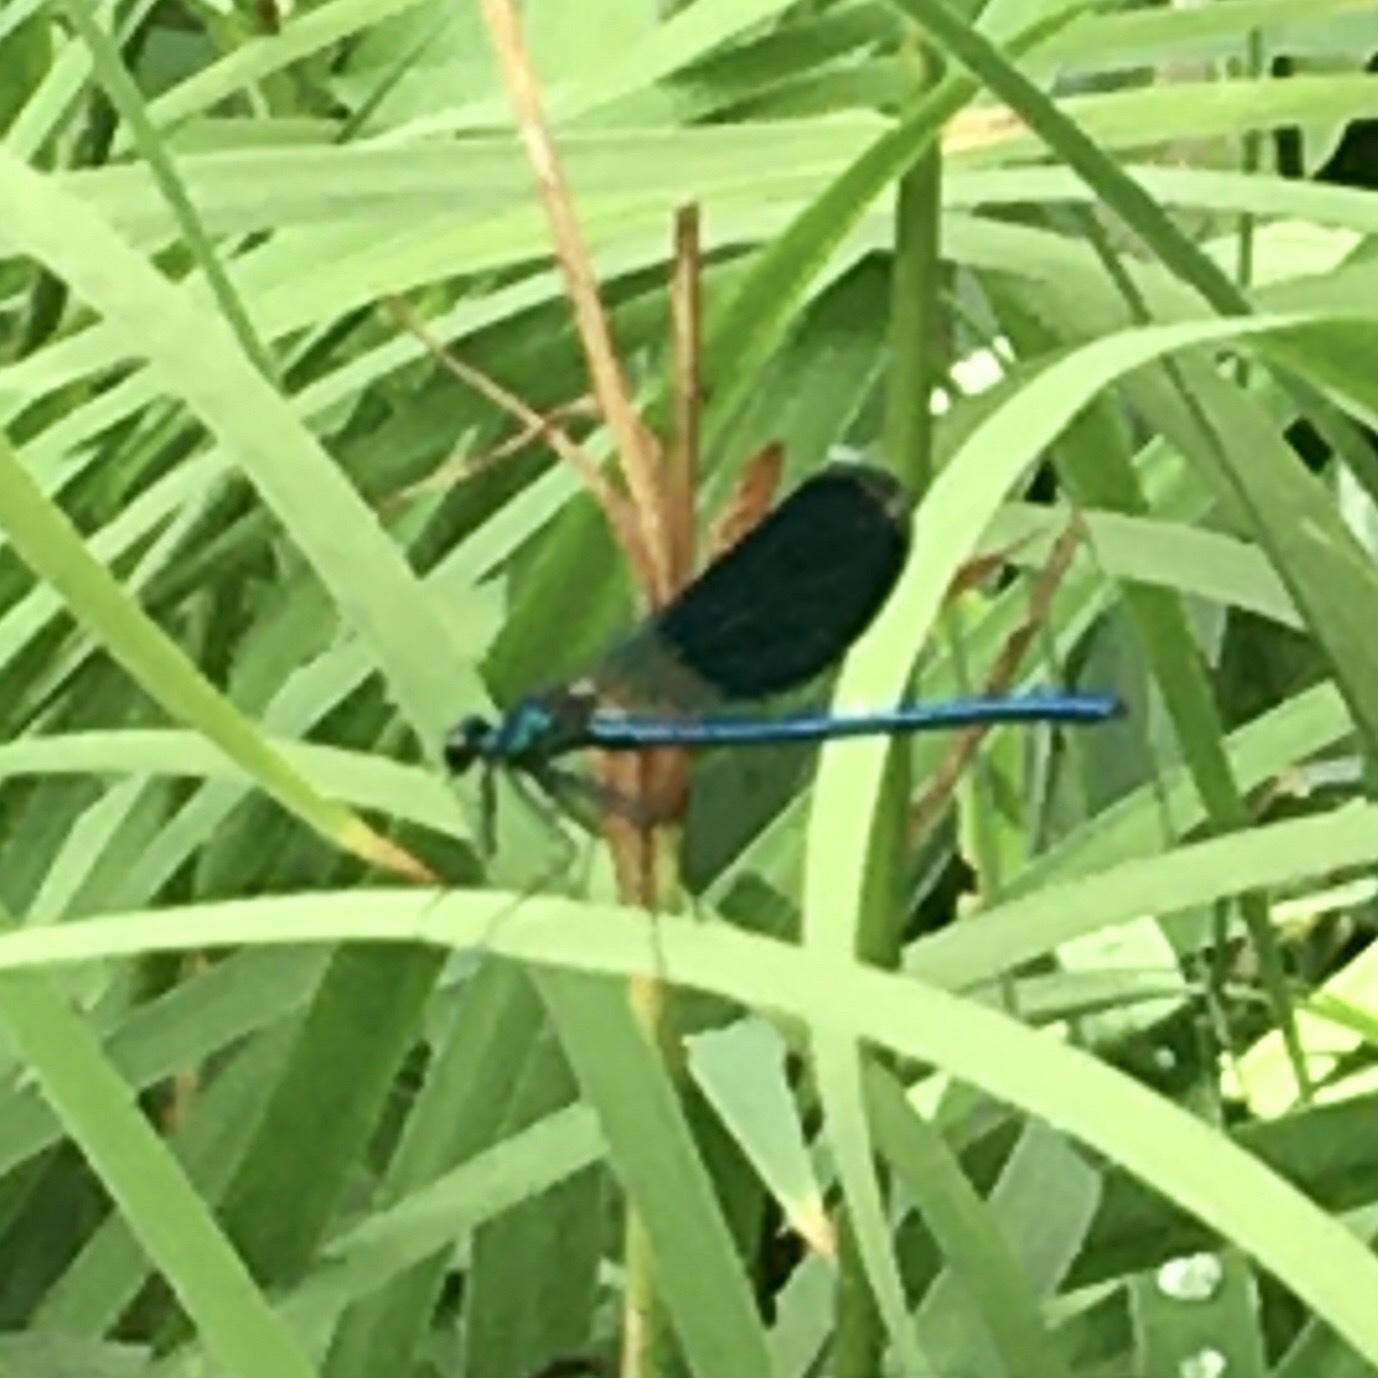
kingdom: Animalia
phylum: Arthropoda
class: Insecta
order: Odonata
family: Calopterygidae
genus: Calopteryx
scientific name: Calopteryx splendens
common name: Banded demoiselle
